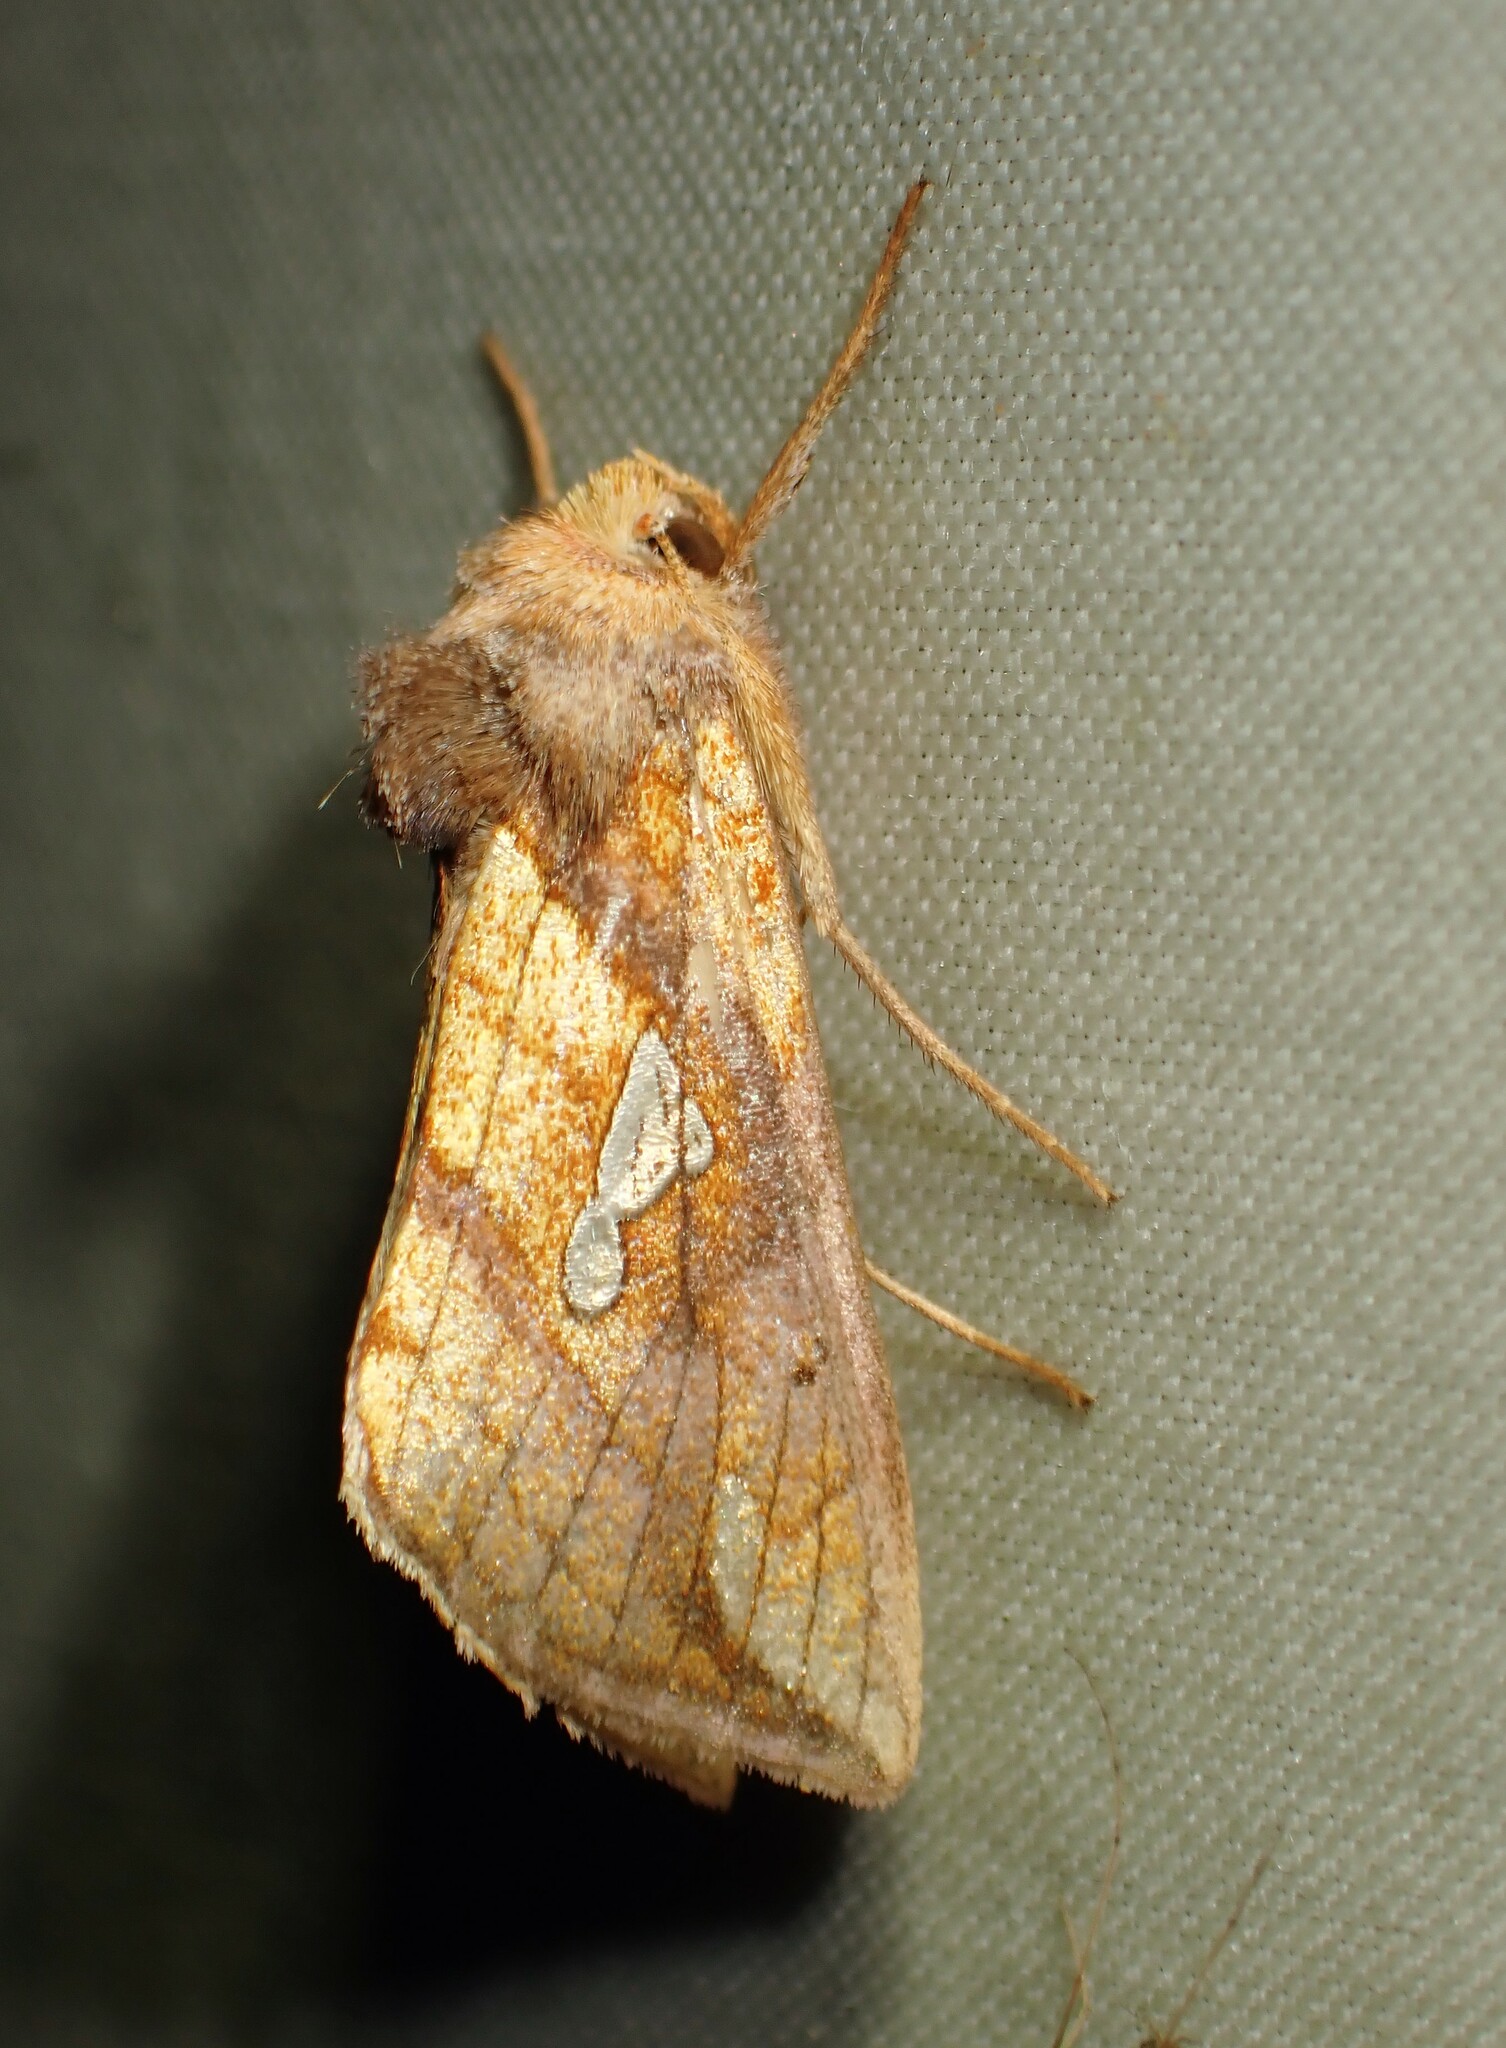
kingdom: Animalia
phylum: Arthropoda
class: Insecta
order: Lepidoptera
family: Noctuidae
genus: Plusia
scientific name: Plusia putnami
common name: Lempke's gold spot
